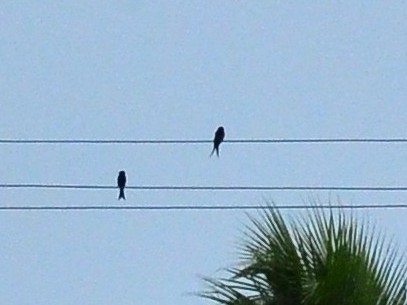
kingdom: Animalia
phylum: Chordata
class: Aves
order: Passeriformes
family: Dicruridae
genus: Dicrurus
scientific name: Dicrurus macrocercus
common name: Black drongo
